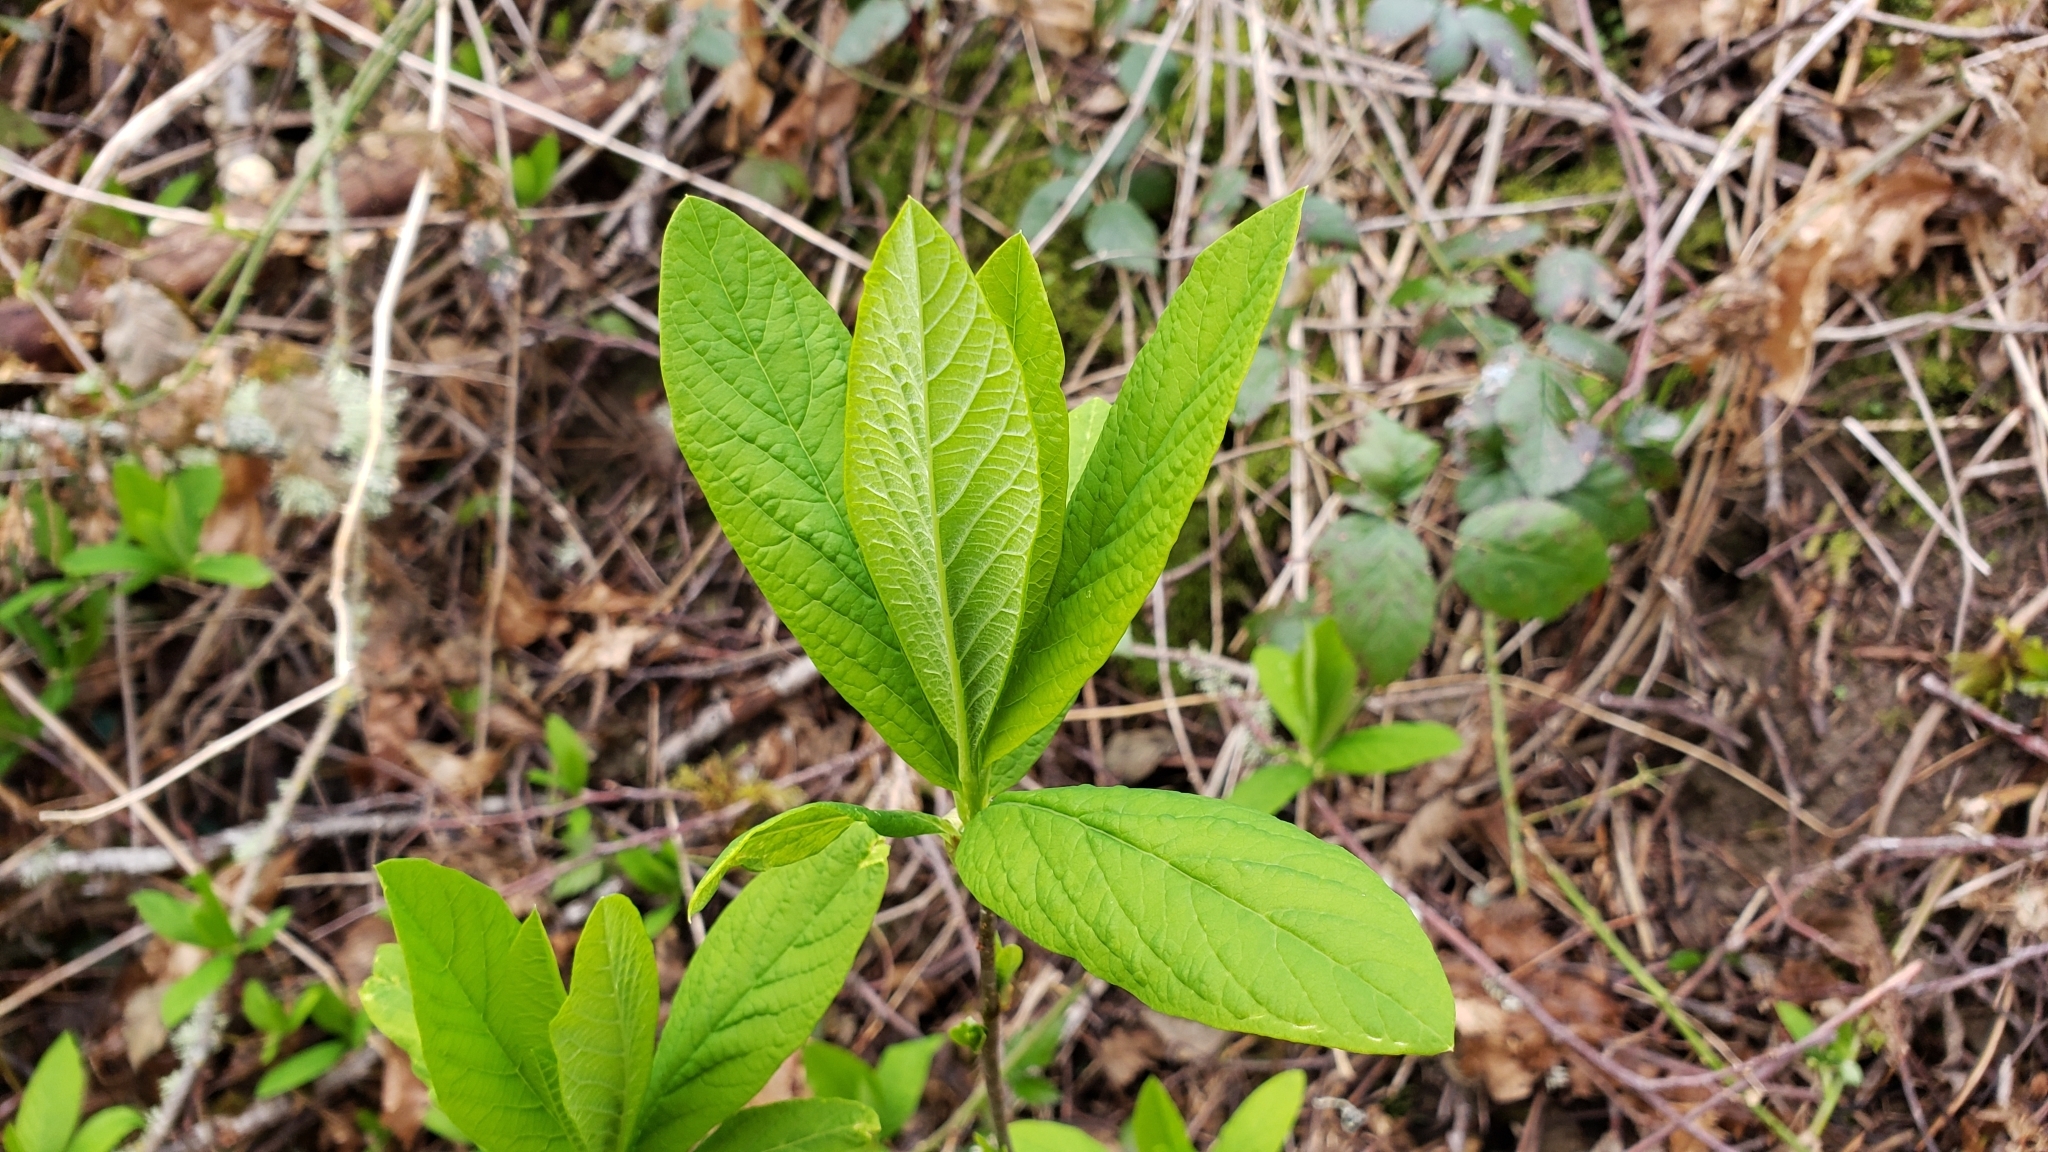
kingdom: Plantae
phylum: Tracheophyta
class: Magnoliopsida
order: Rosales
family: Rosaceae
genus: Oemleria
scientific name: Oemleria cerasiformis
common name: Osoberry
